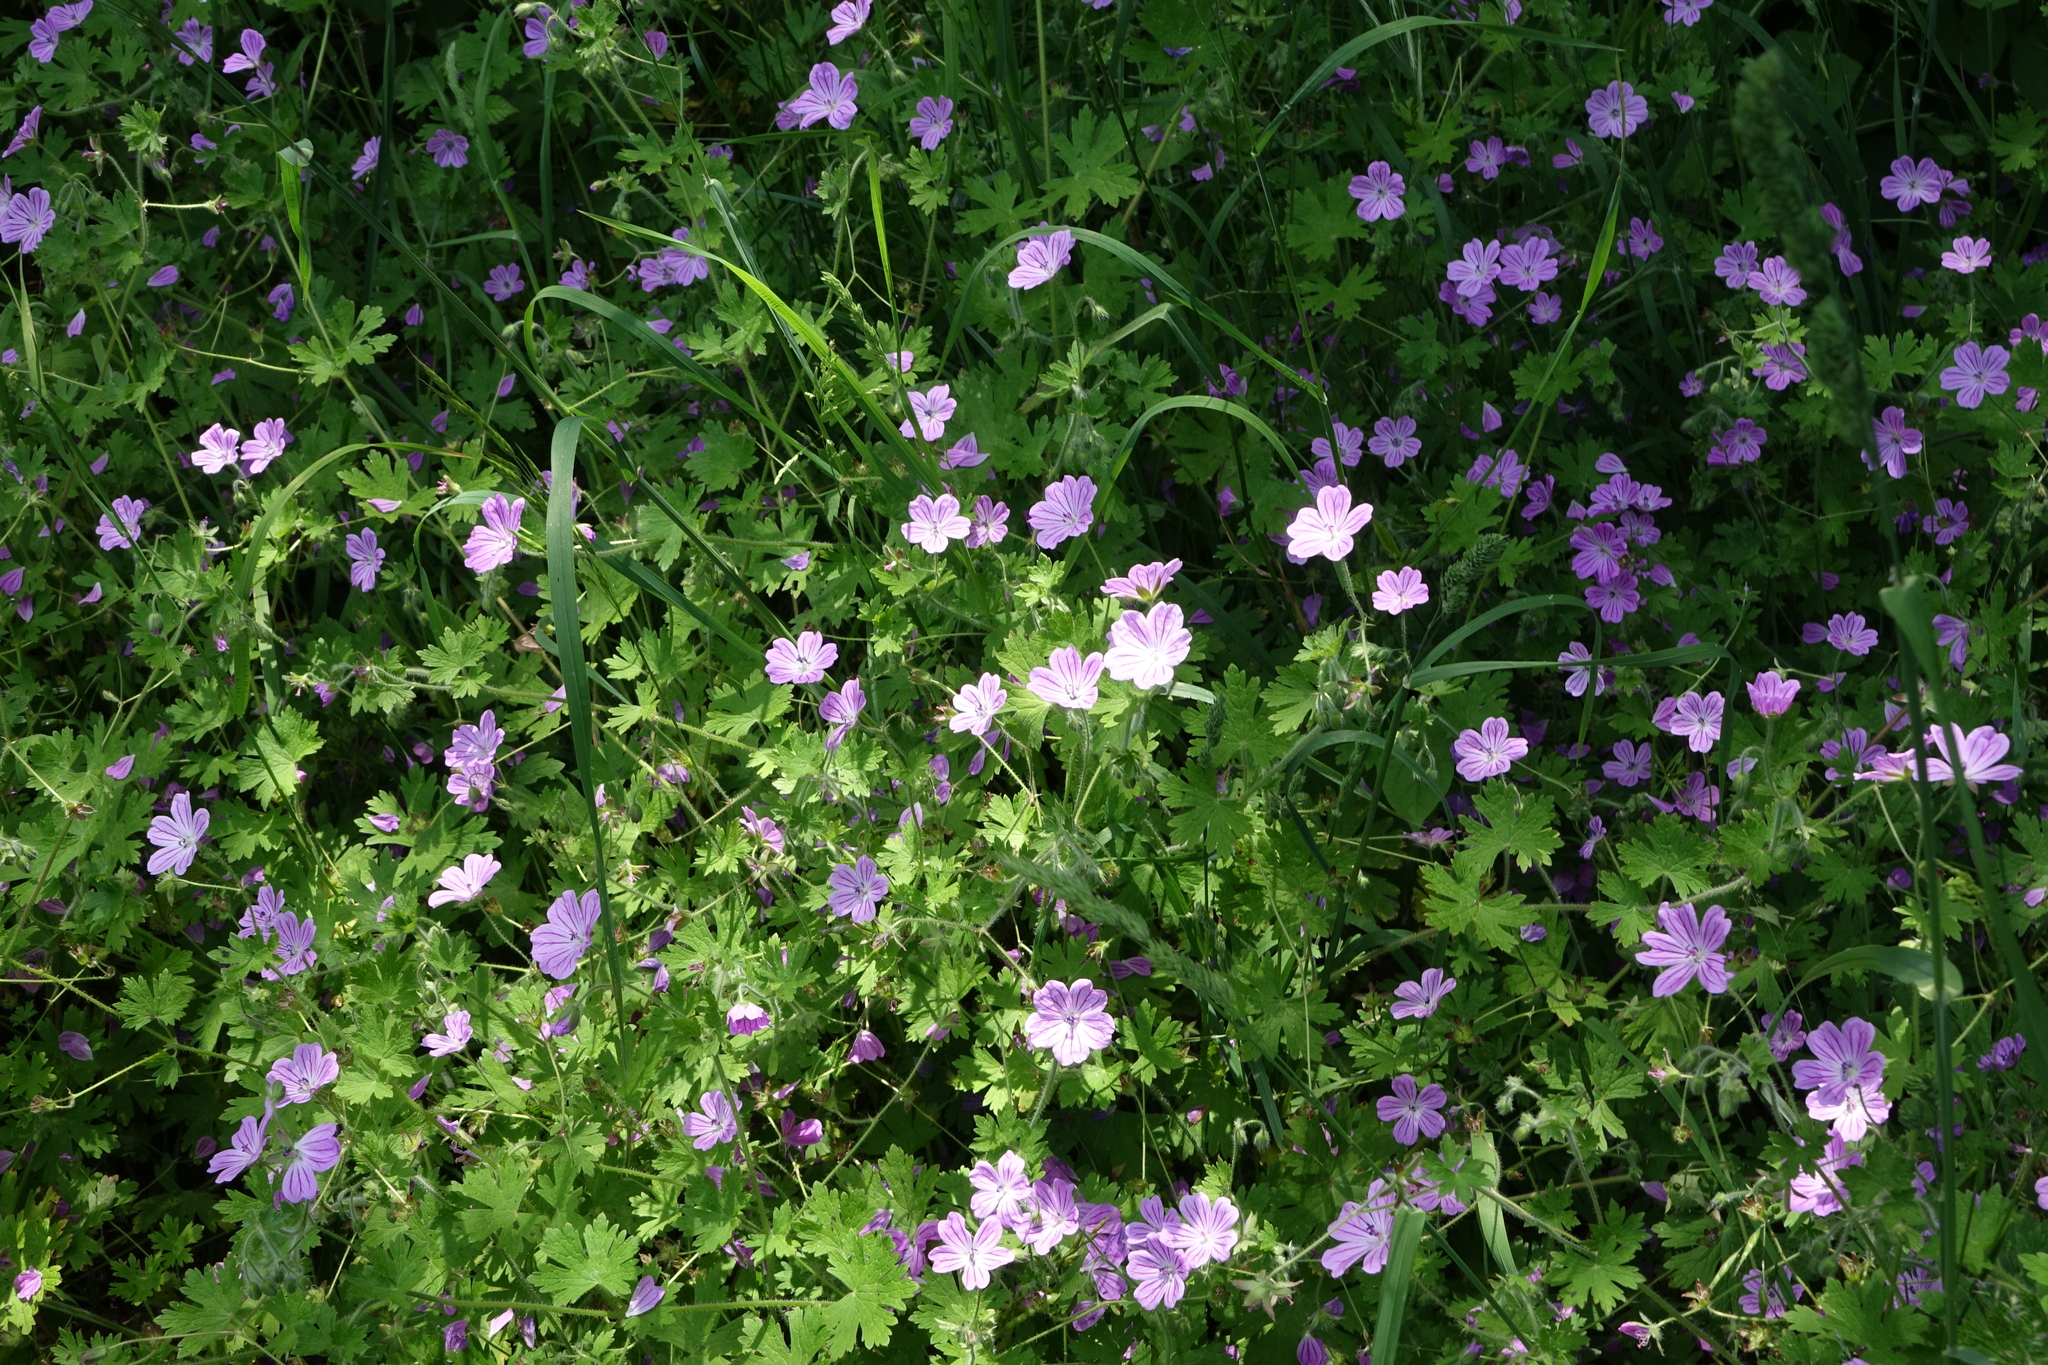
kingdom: Plantae
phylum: Tracheophyta
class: Magnoliopsida
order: Geraniales
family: Geraniaceae
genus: Geranium
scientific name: Geranium albanum
